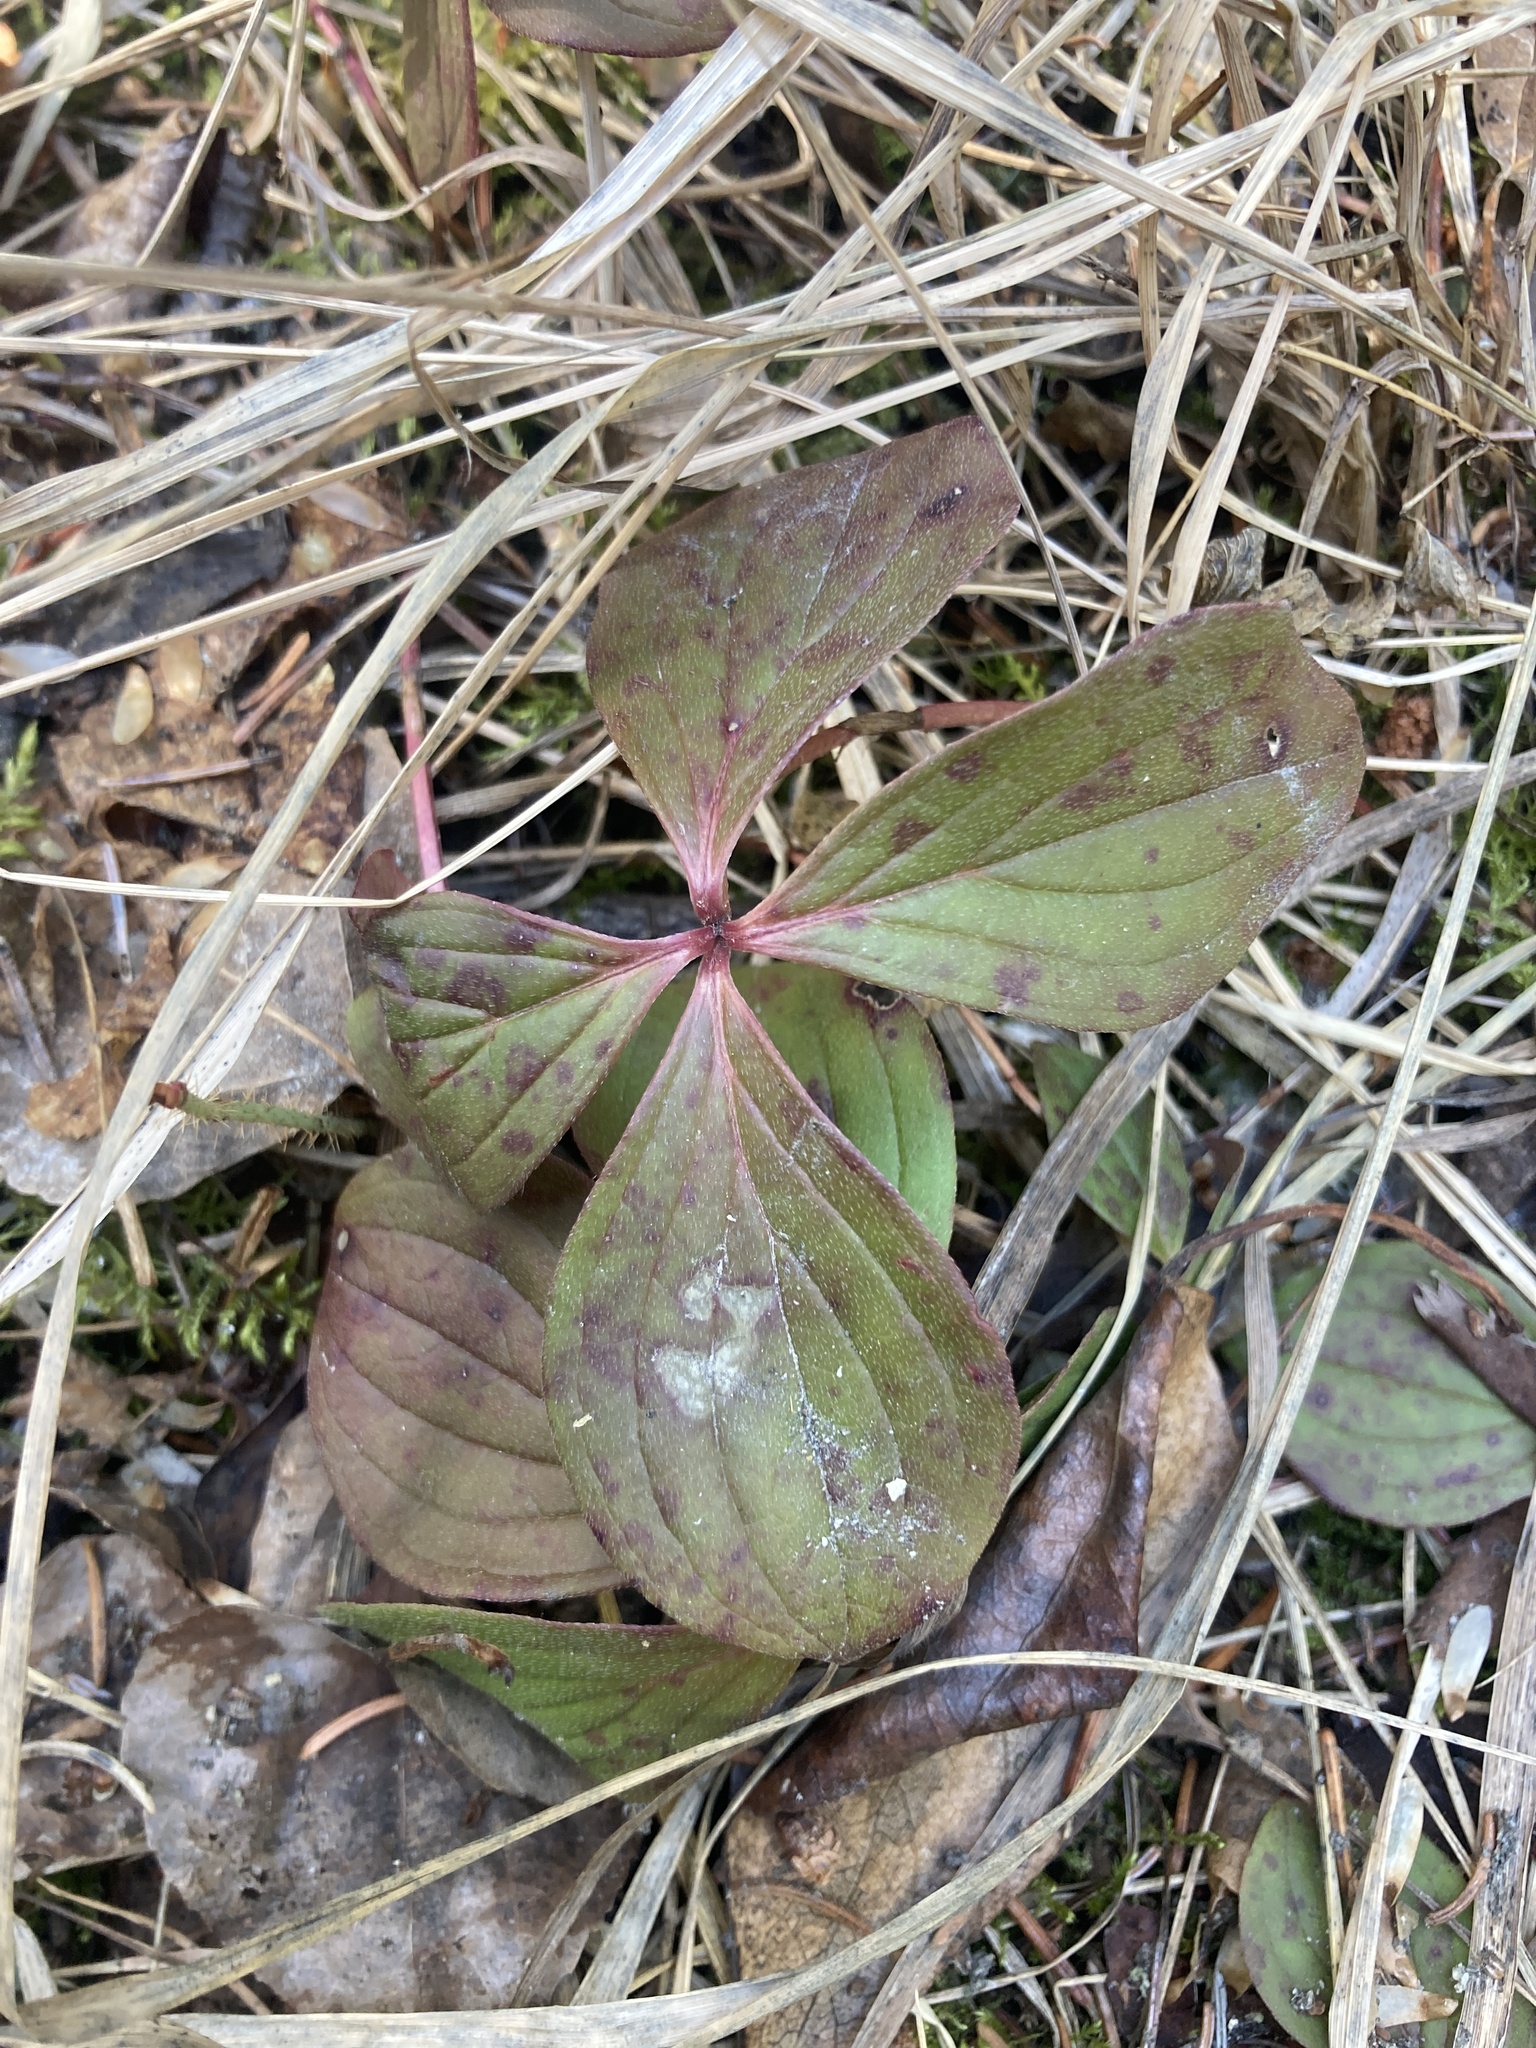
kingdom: Plantae
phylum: Tracheophyta
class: Magnoliopsida
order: Cornales
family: Cornaceae
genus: Cornus
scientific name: Cornus canadensis
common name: Creeping dogwood
